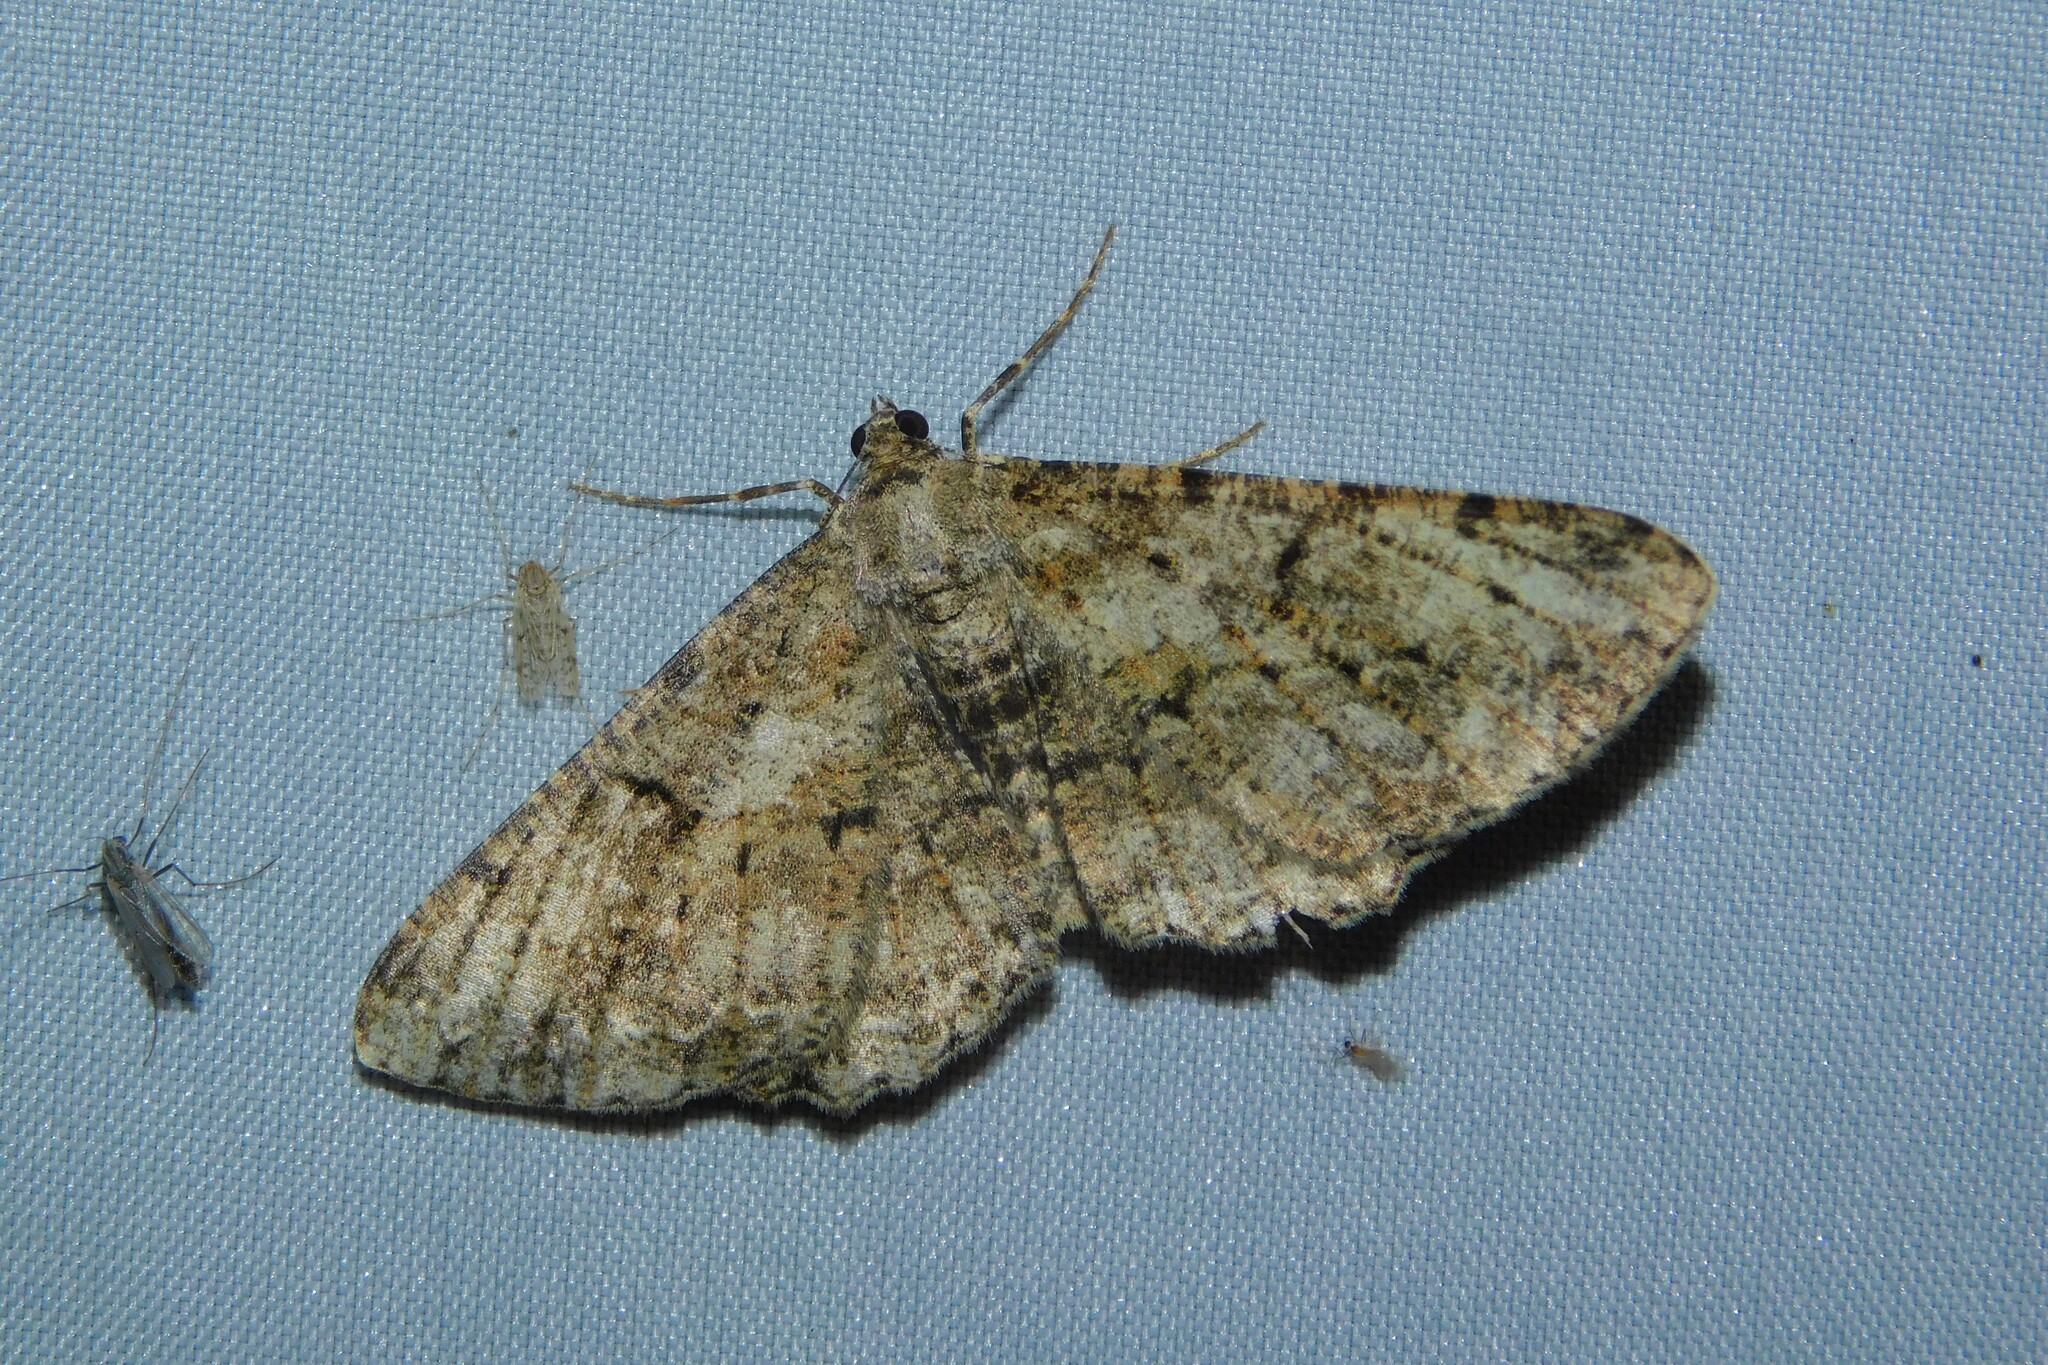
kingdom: Animalia
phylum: Arthropoda
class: Insecta
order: Lepidoptera
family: Geometridae
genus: Peribatodes
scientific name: Peribatodes rhomboidaria
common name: Willow beauty
